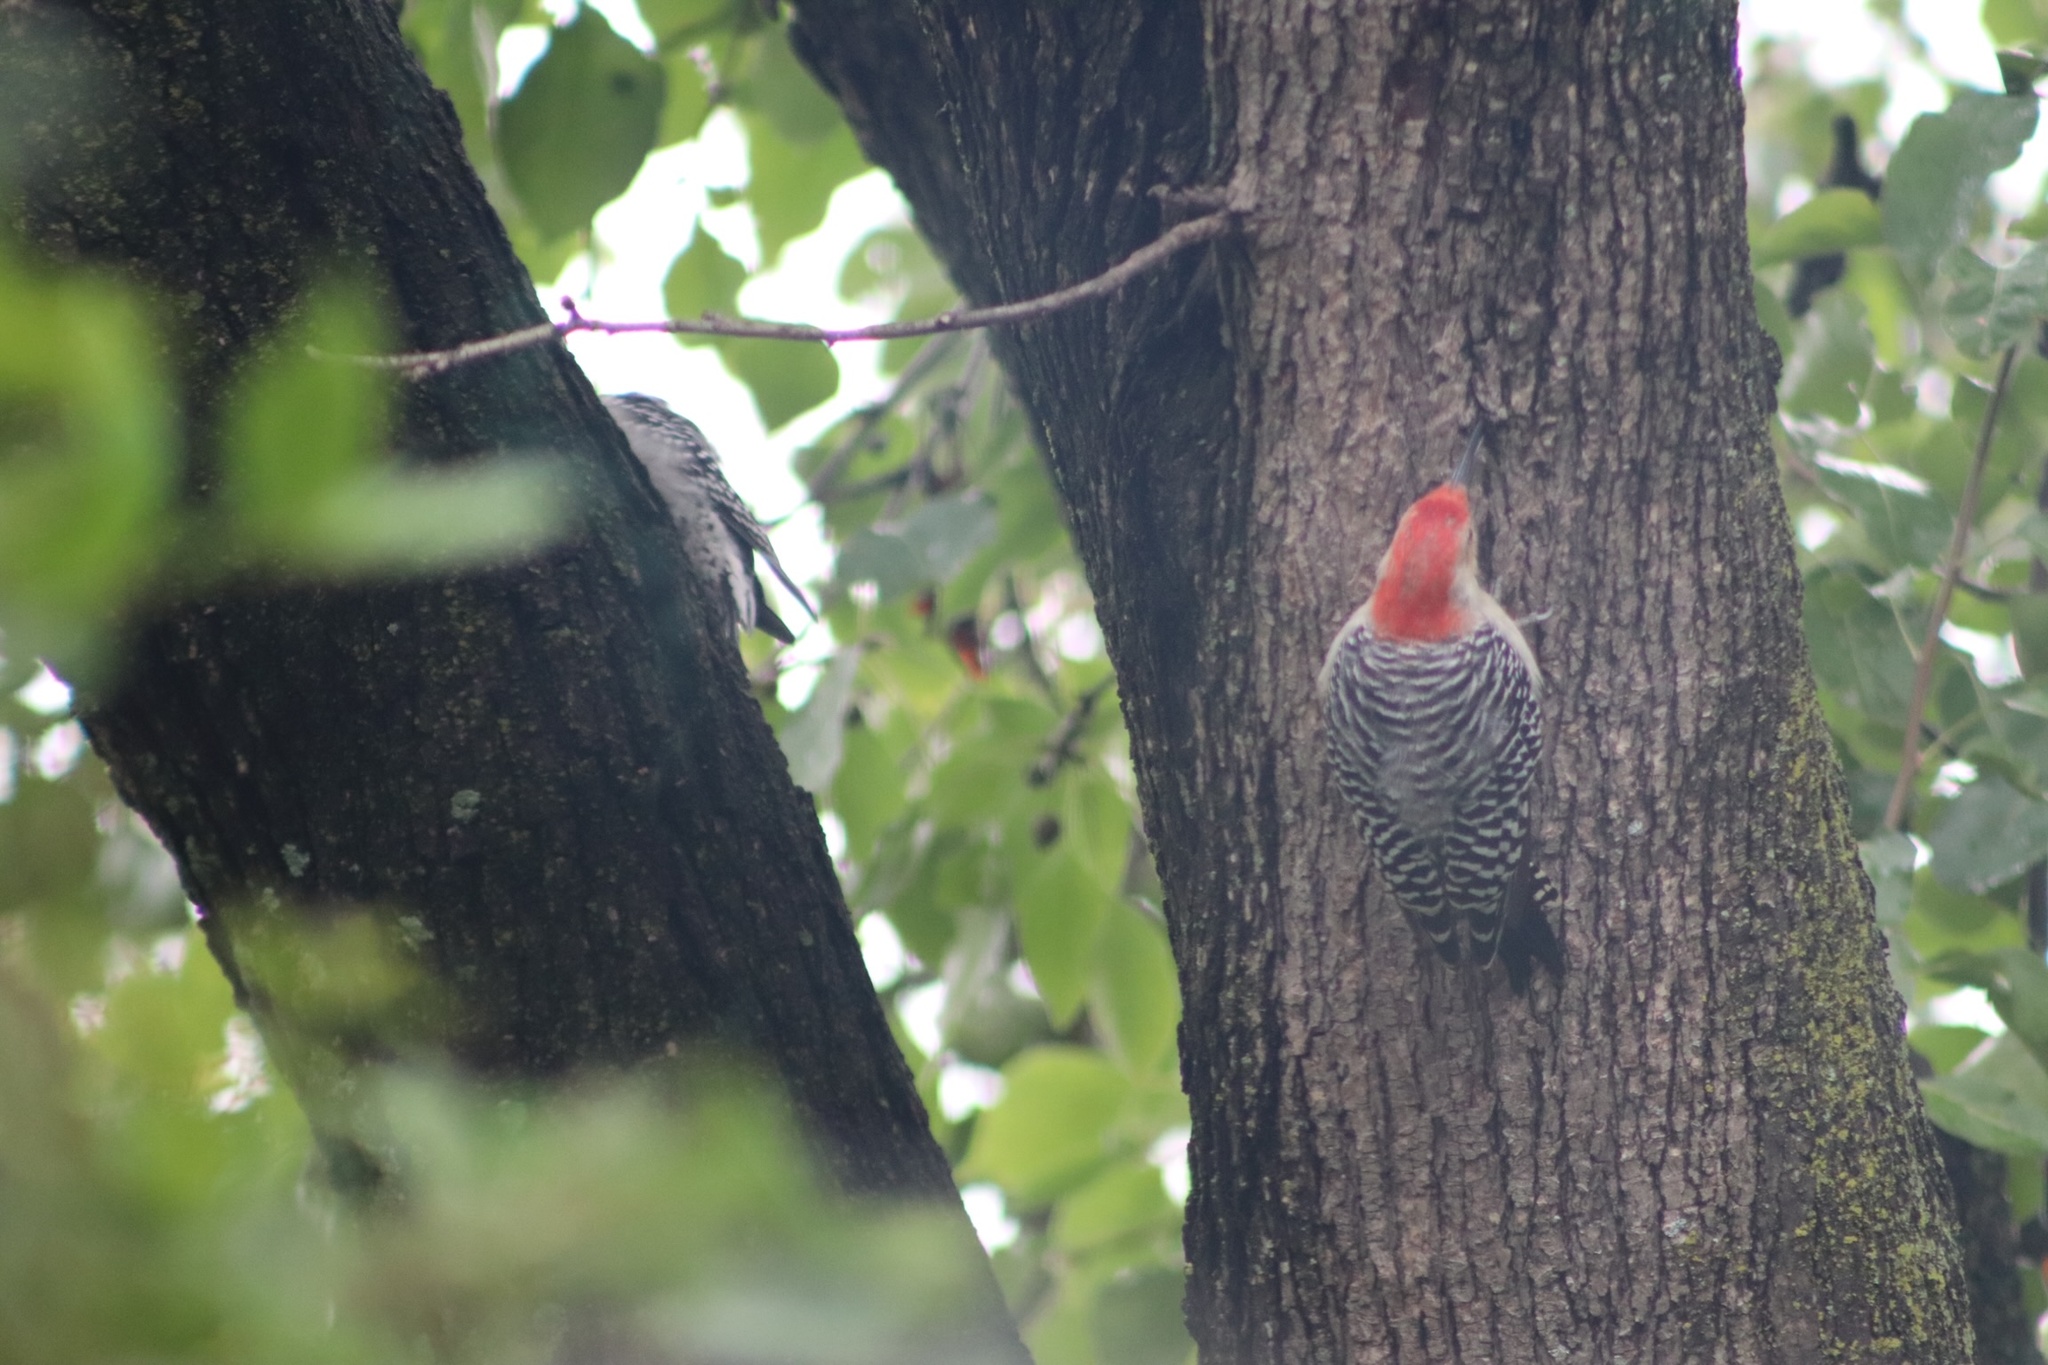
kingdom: Animalia
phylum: Chordata
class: Aves
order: Piciformes
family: Picidae
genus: Melanerpes
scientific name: Melanerpes carolinus
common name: Red-bellied woodpecker
